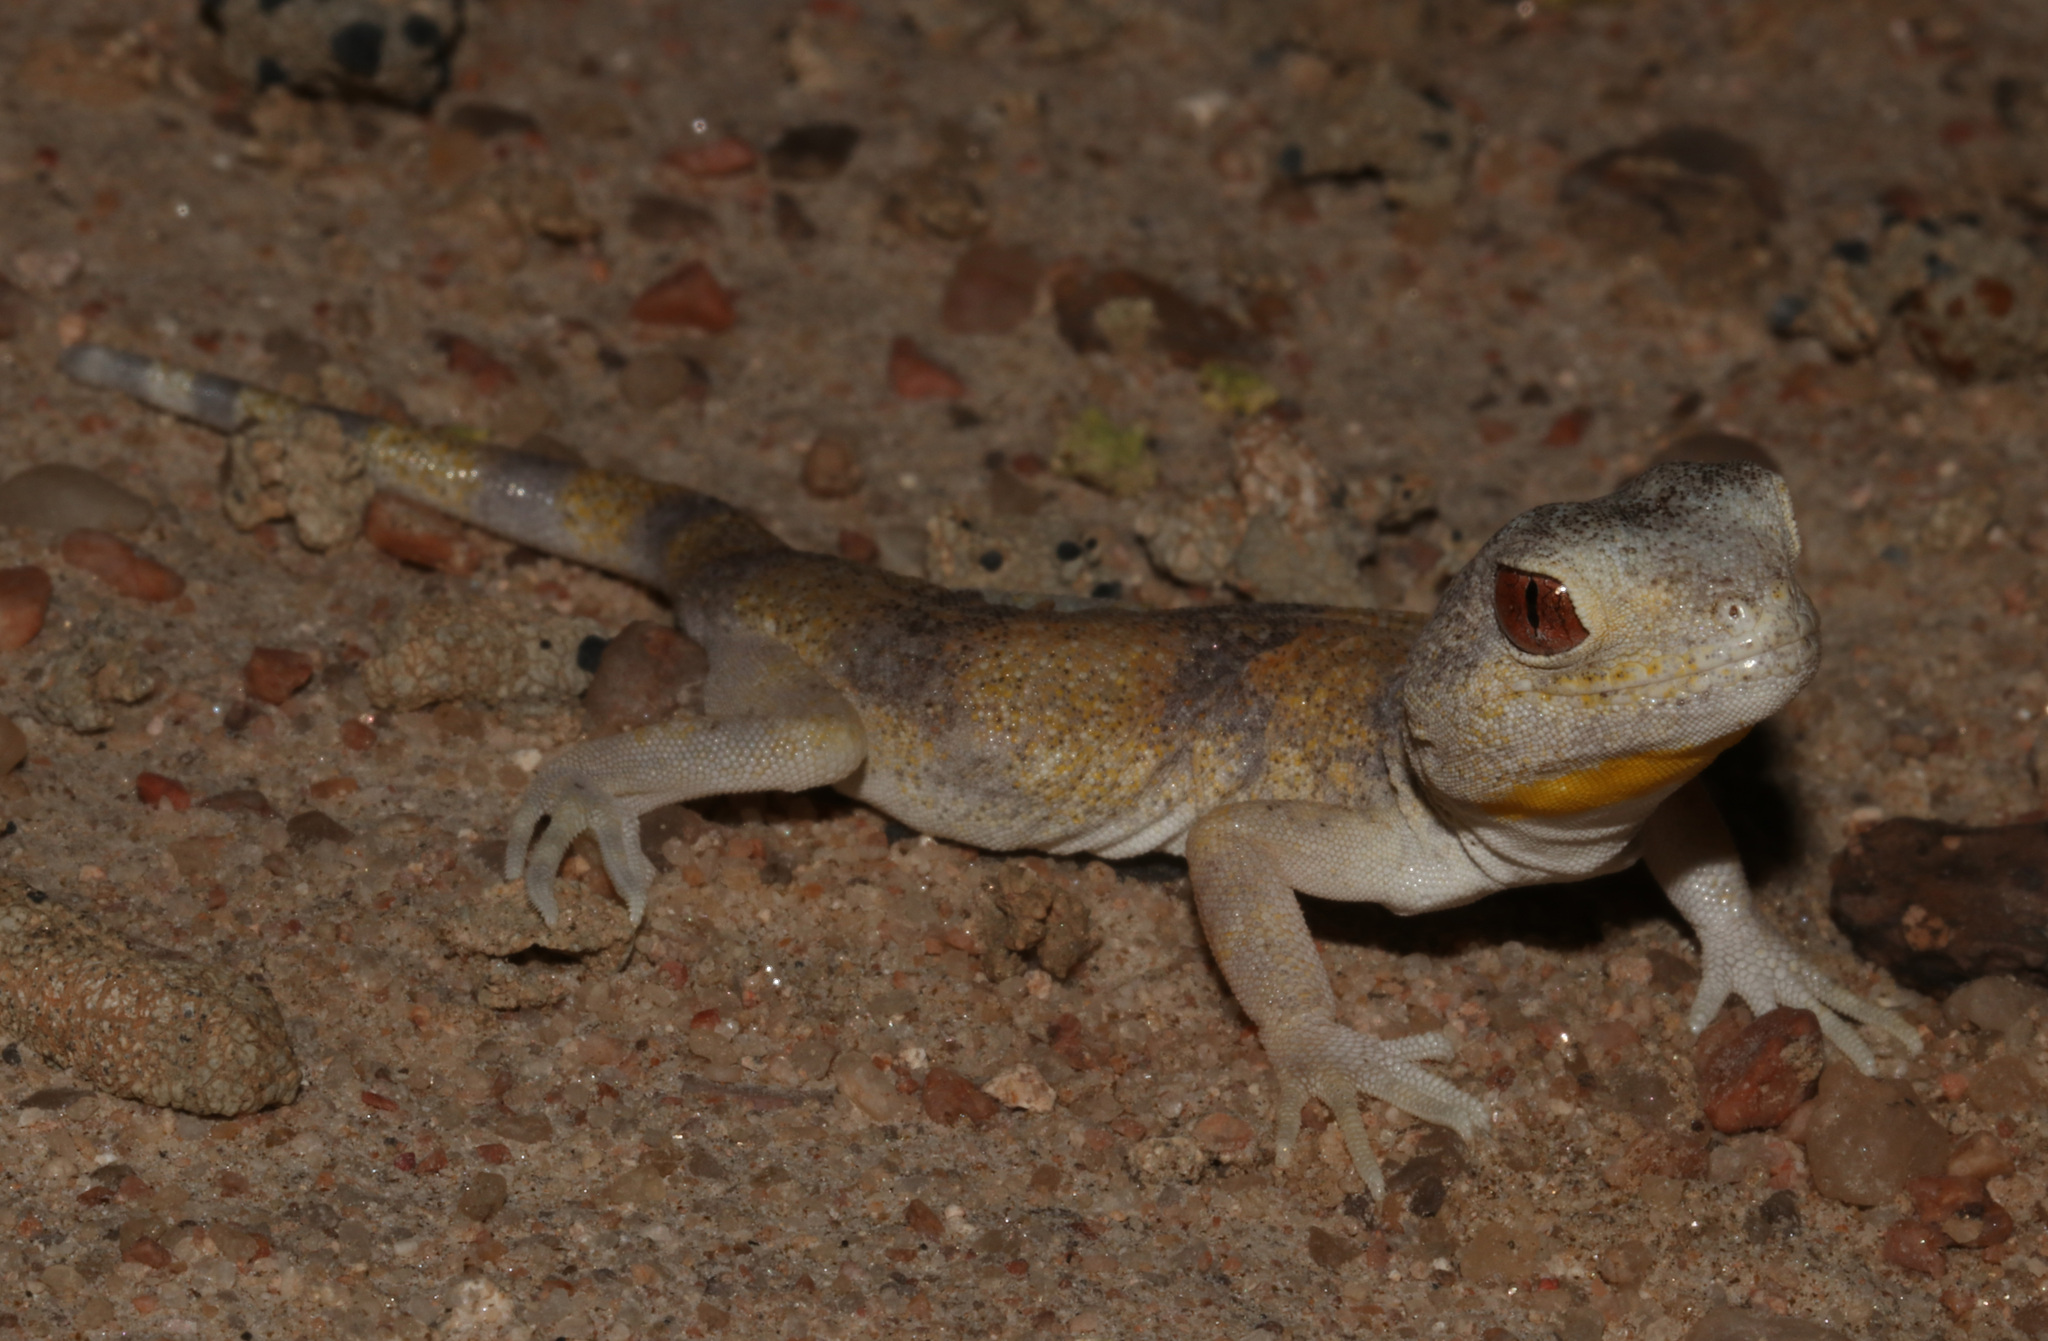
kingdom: Animalia
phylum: Chordata
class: Squamata
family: Gekkonidae
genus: Ptenopus
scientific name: Ptenopus carpi
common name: Namib chirping gecko
